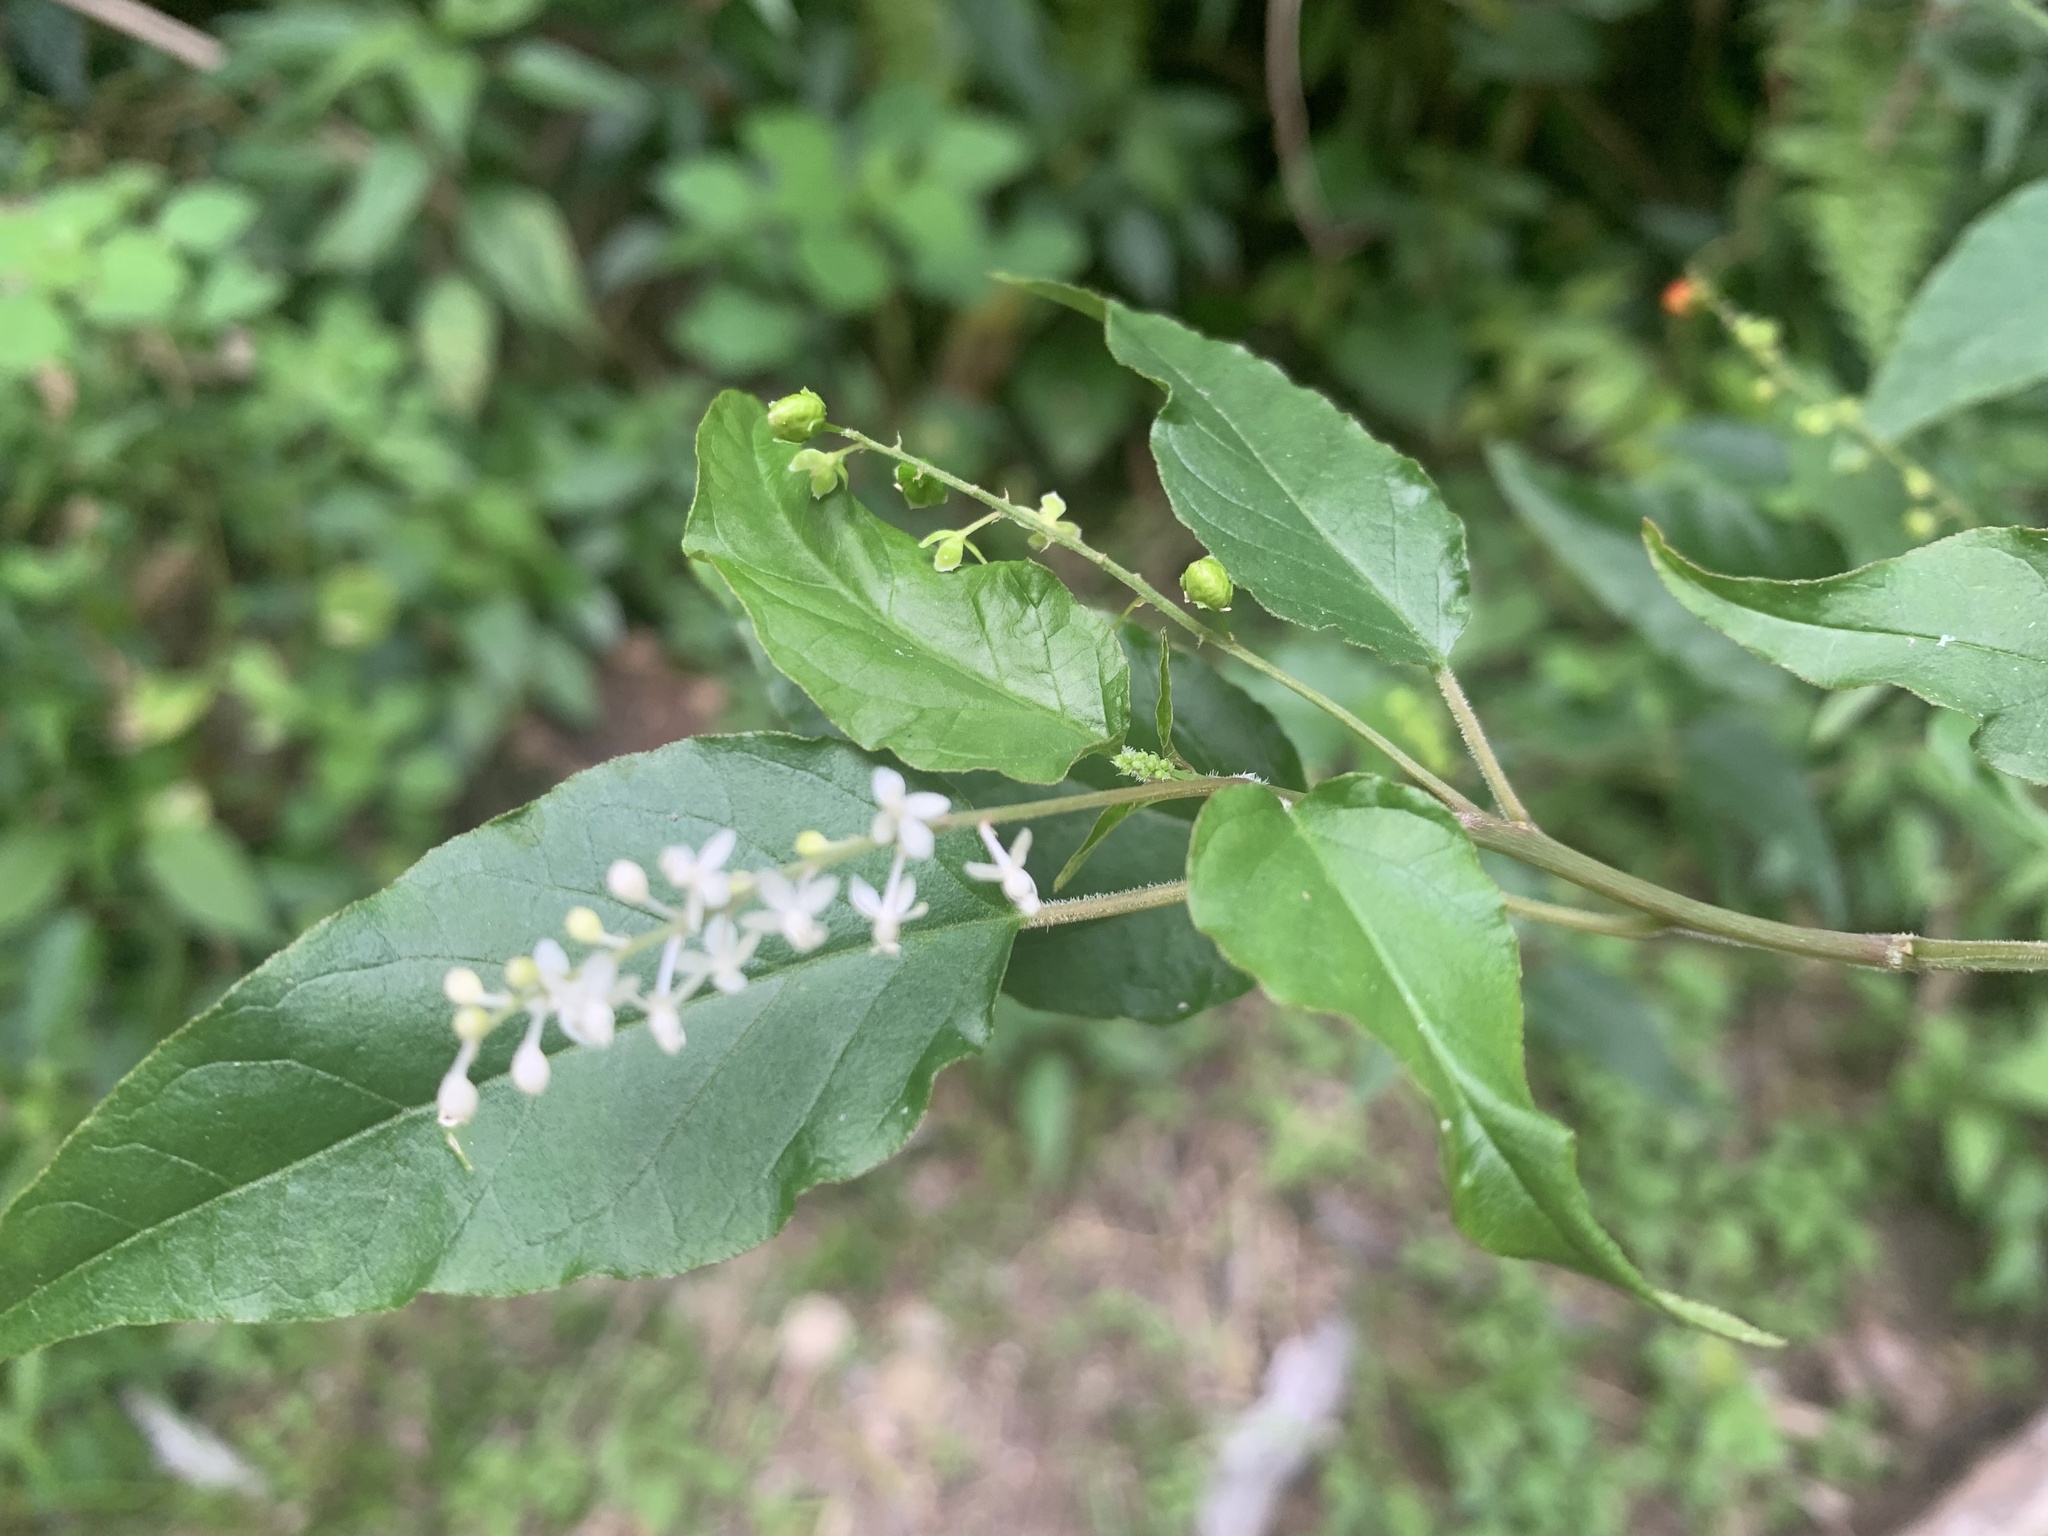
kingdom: Plantae
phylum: Tracheophyta
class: Magnoliopsida
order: Caryophyllales
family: Phytolaccaceae
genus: Rivina
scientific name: Rivina humilis
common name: Rougeplant
